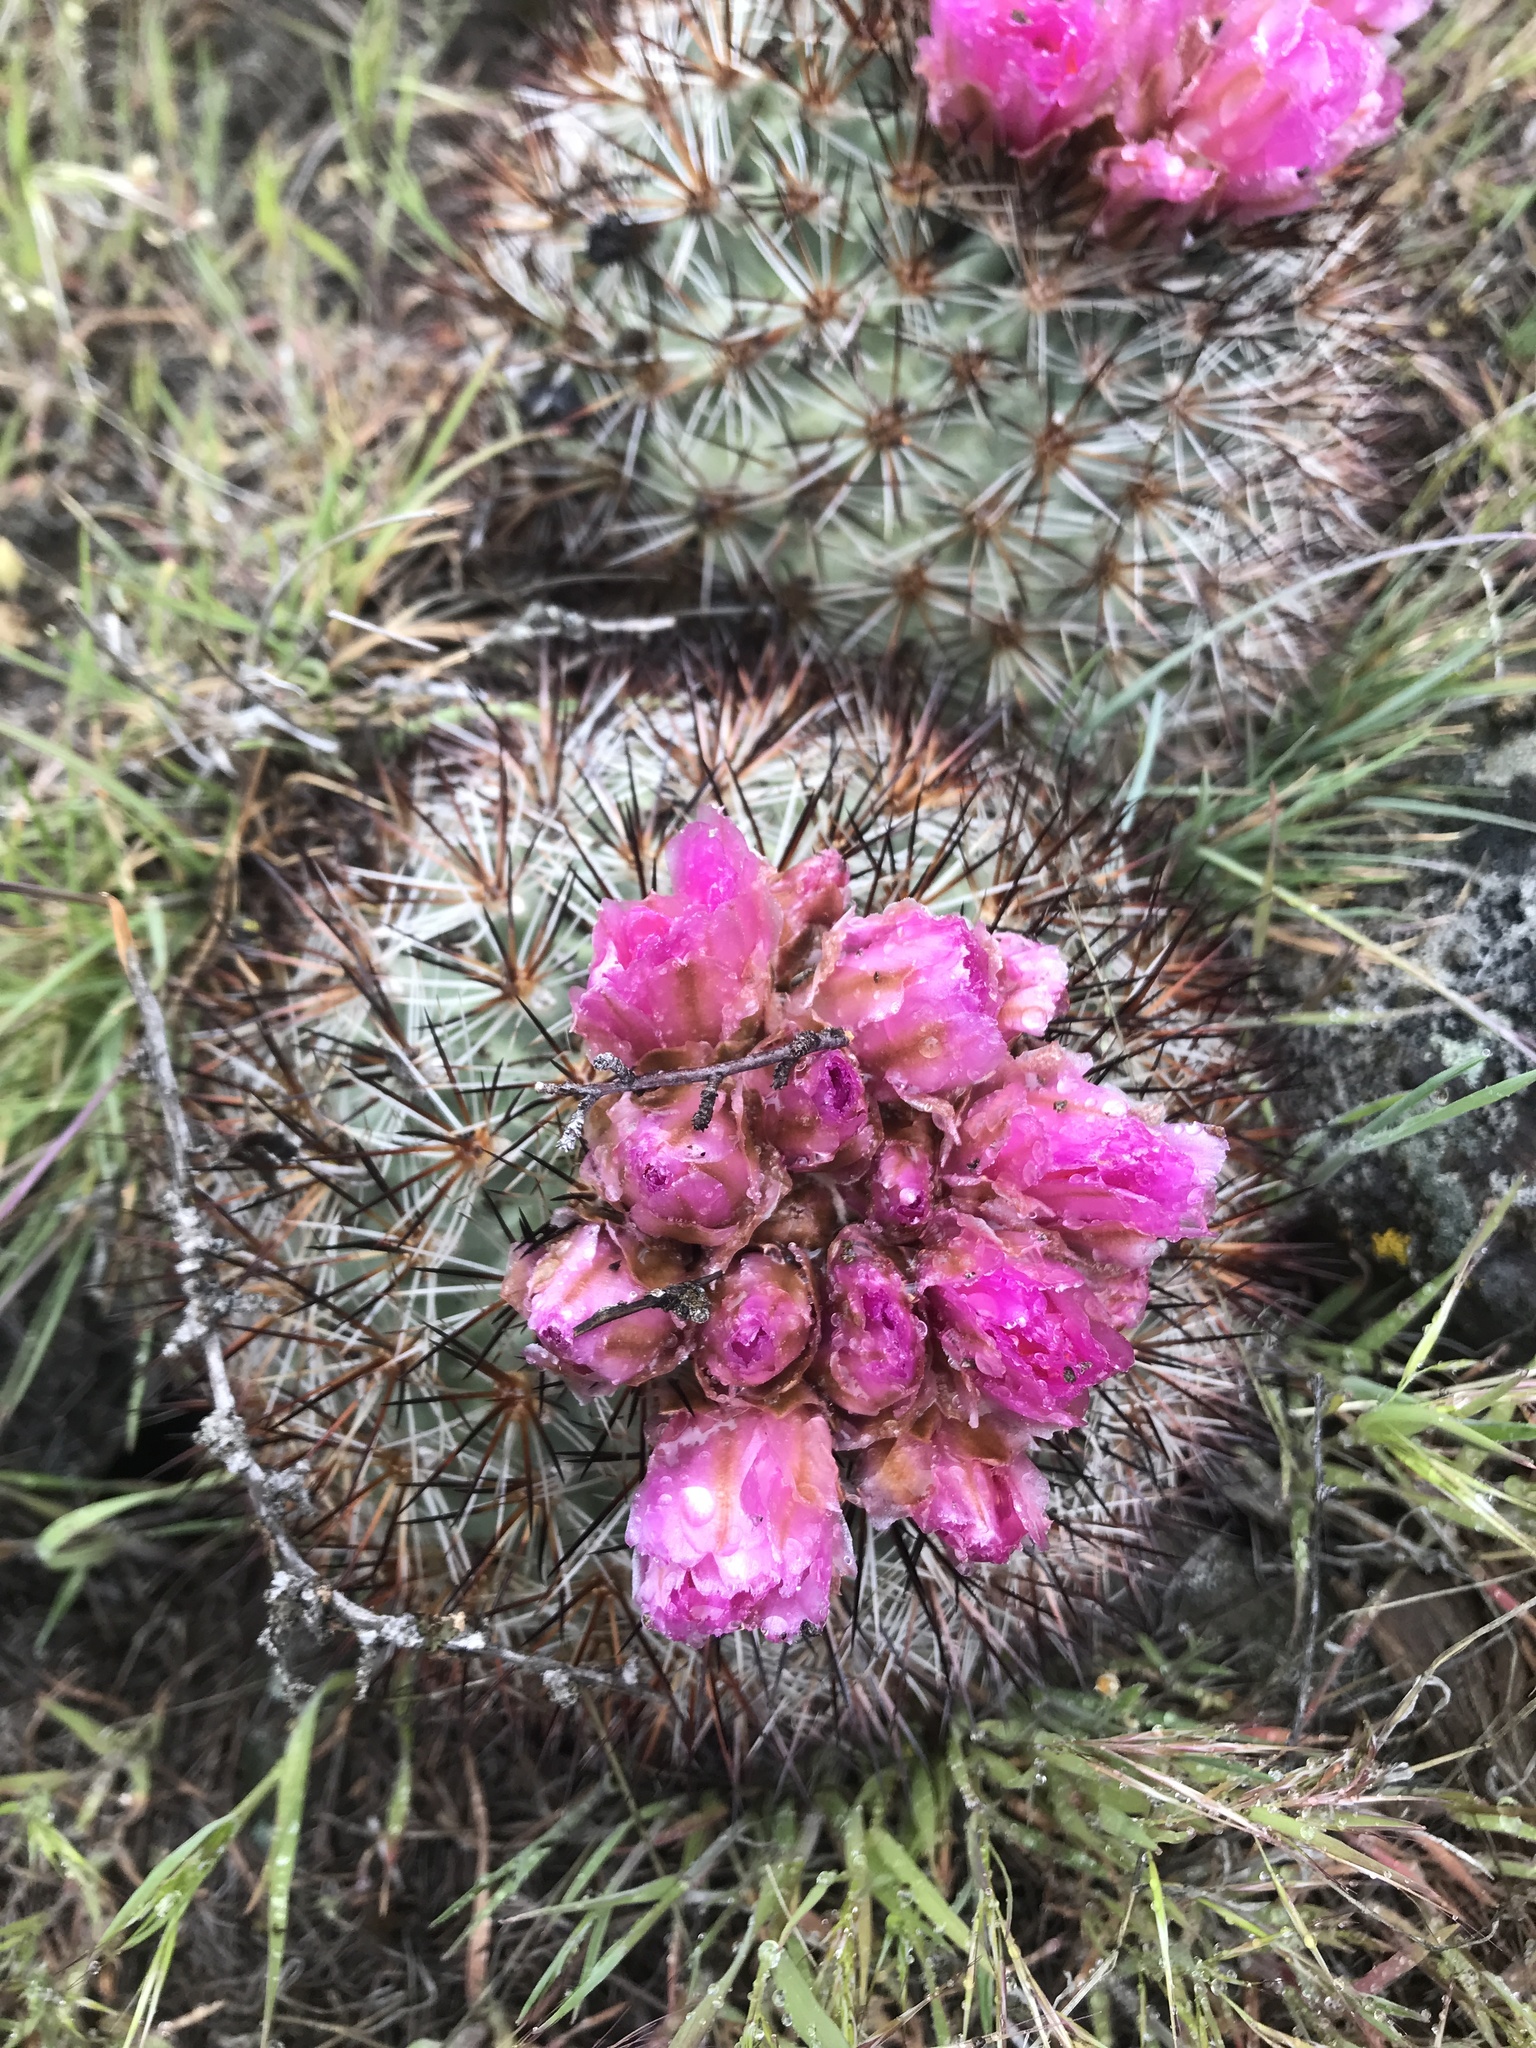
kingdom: Plantae
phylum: Tracheophyta
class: Magnoliopsida
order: Caryophyllales
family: Cactaceae
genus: Pediocactus
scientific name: Pediocactus nigrispinus
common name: Simpson's hedgehog cactus
